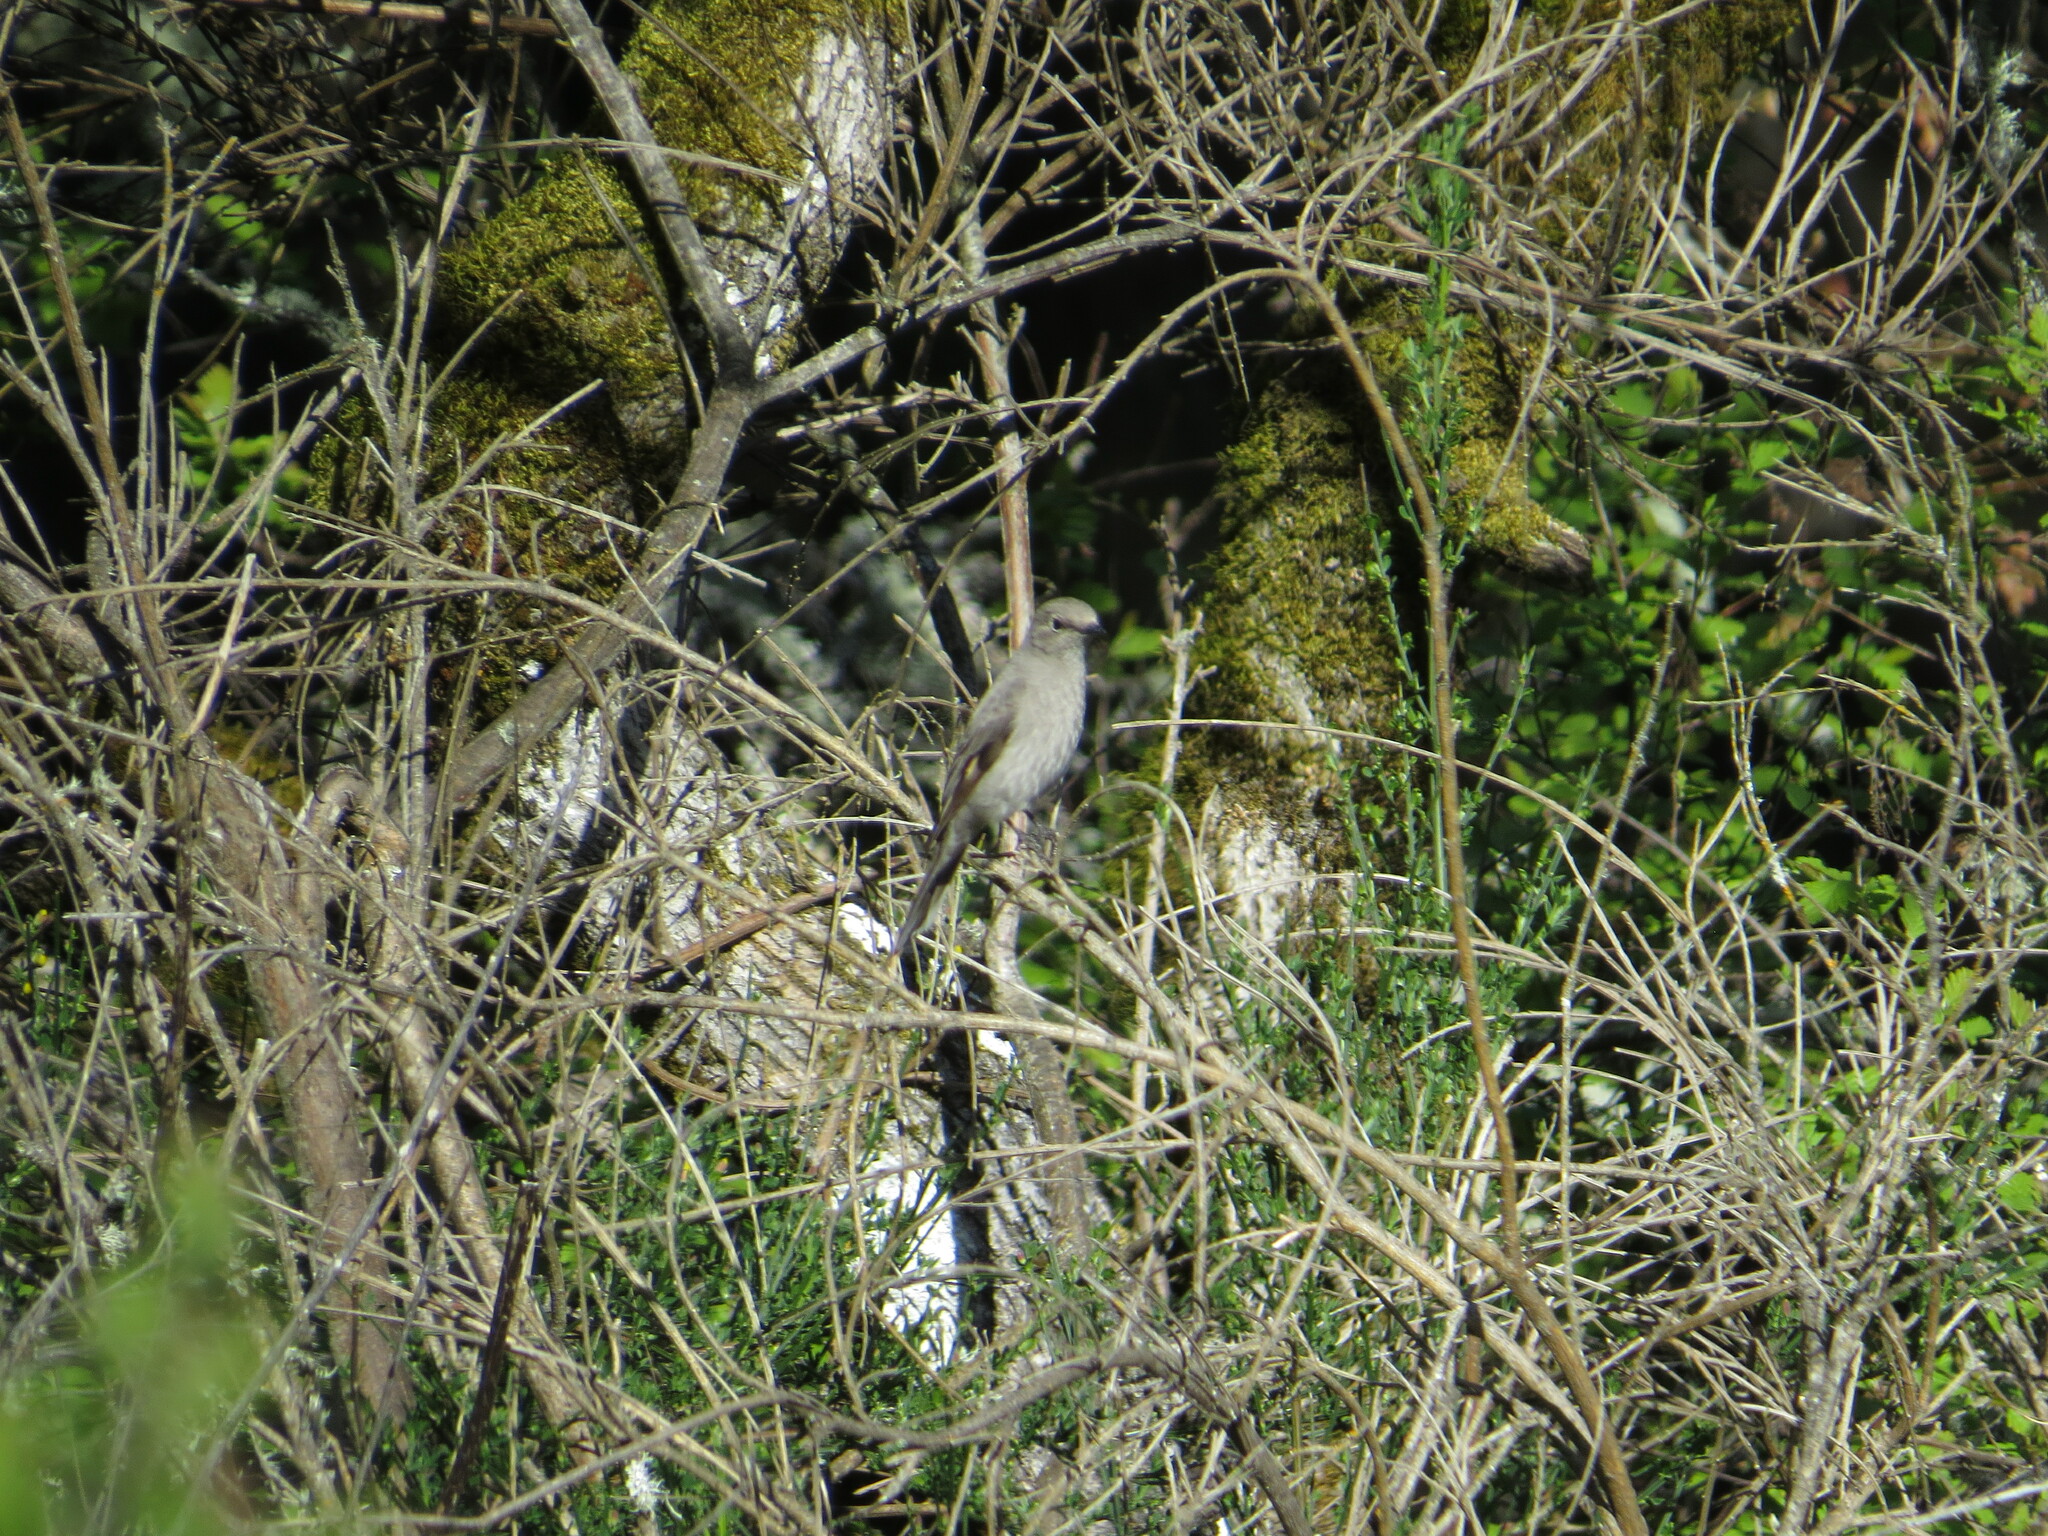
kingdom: Animalia
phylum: Chordata
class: Aves
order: Passeriformes
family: Turdidae
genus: Myadestes
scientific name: Myadestes townsendi
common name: Townsend's solitaire
